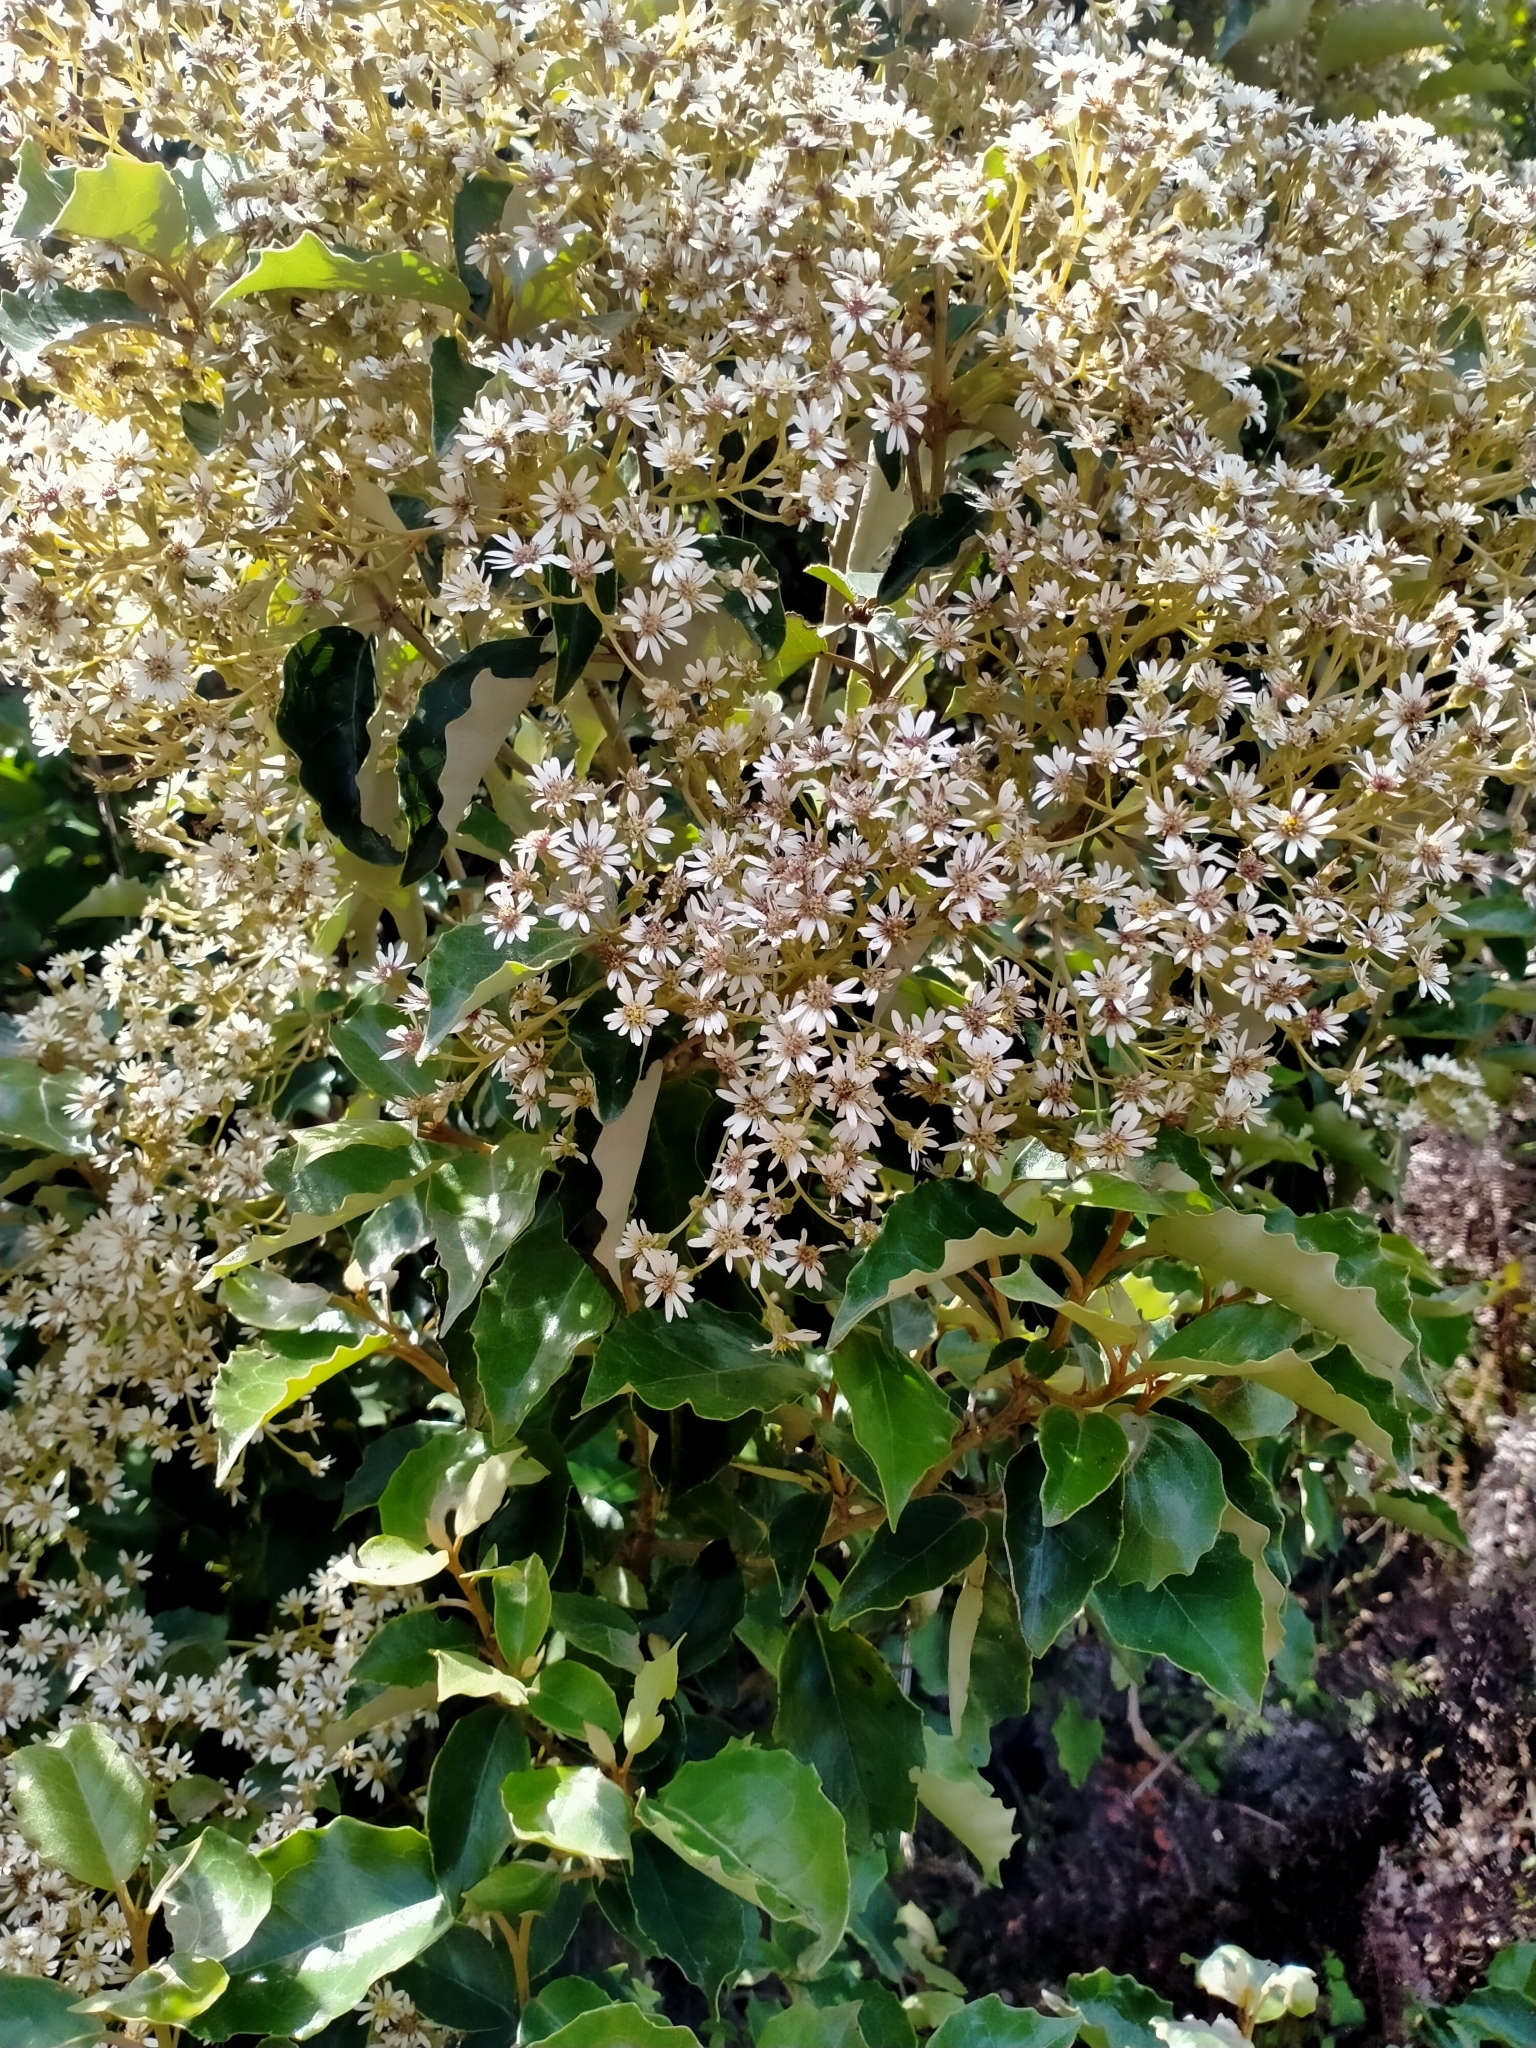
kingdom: Plantae
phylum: Tracheophyta
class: Magnoliopsida
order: Asterales
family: Asteraceae
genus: Olearia
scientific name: Olearia arborescens
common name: Glossy tree daisy
